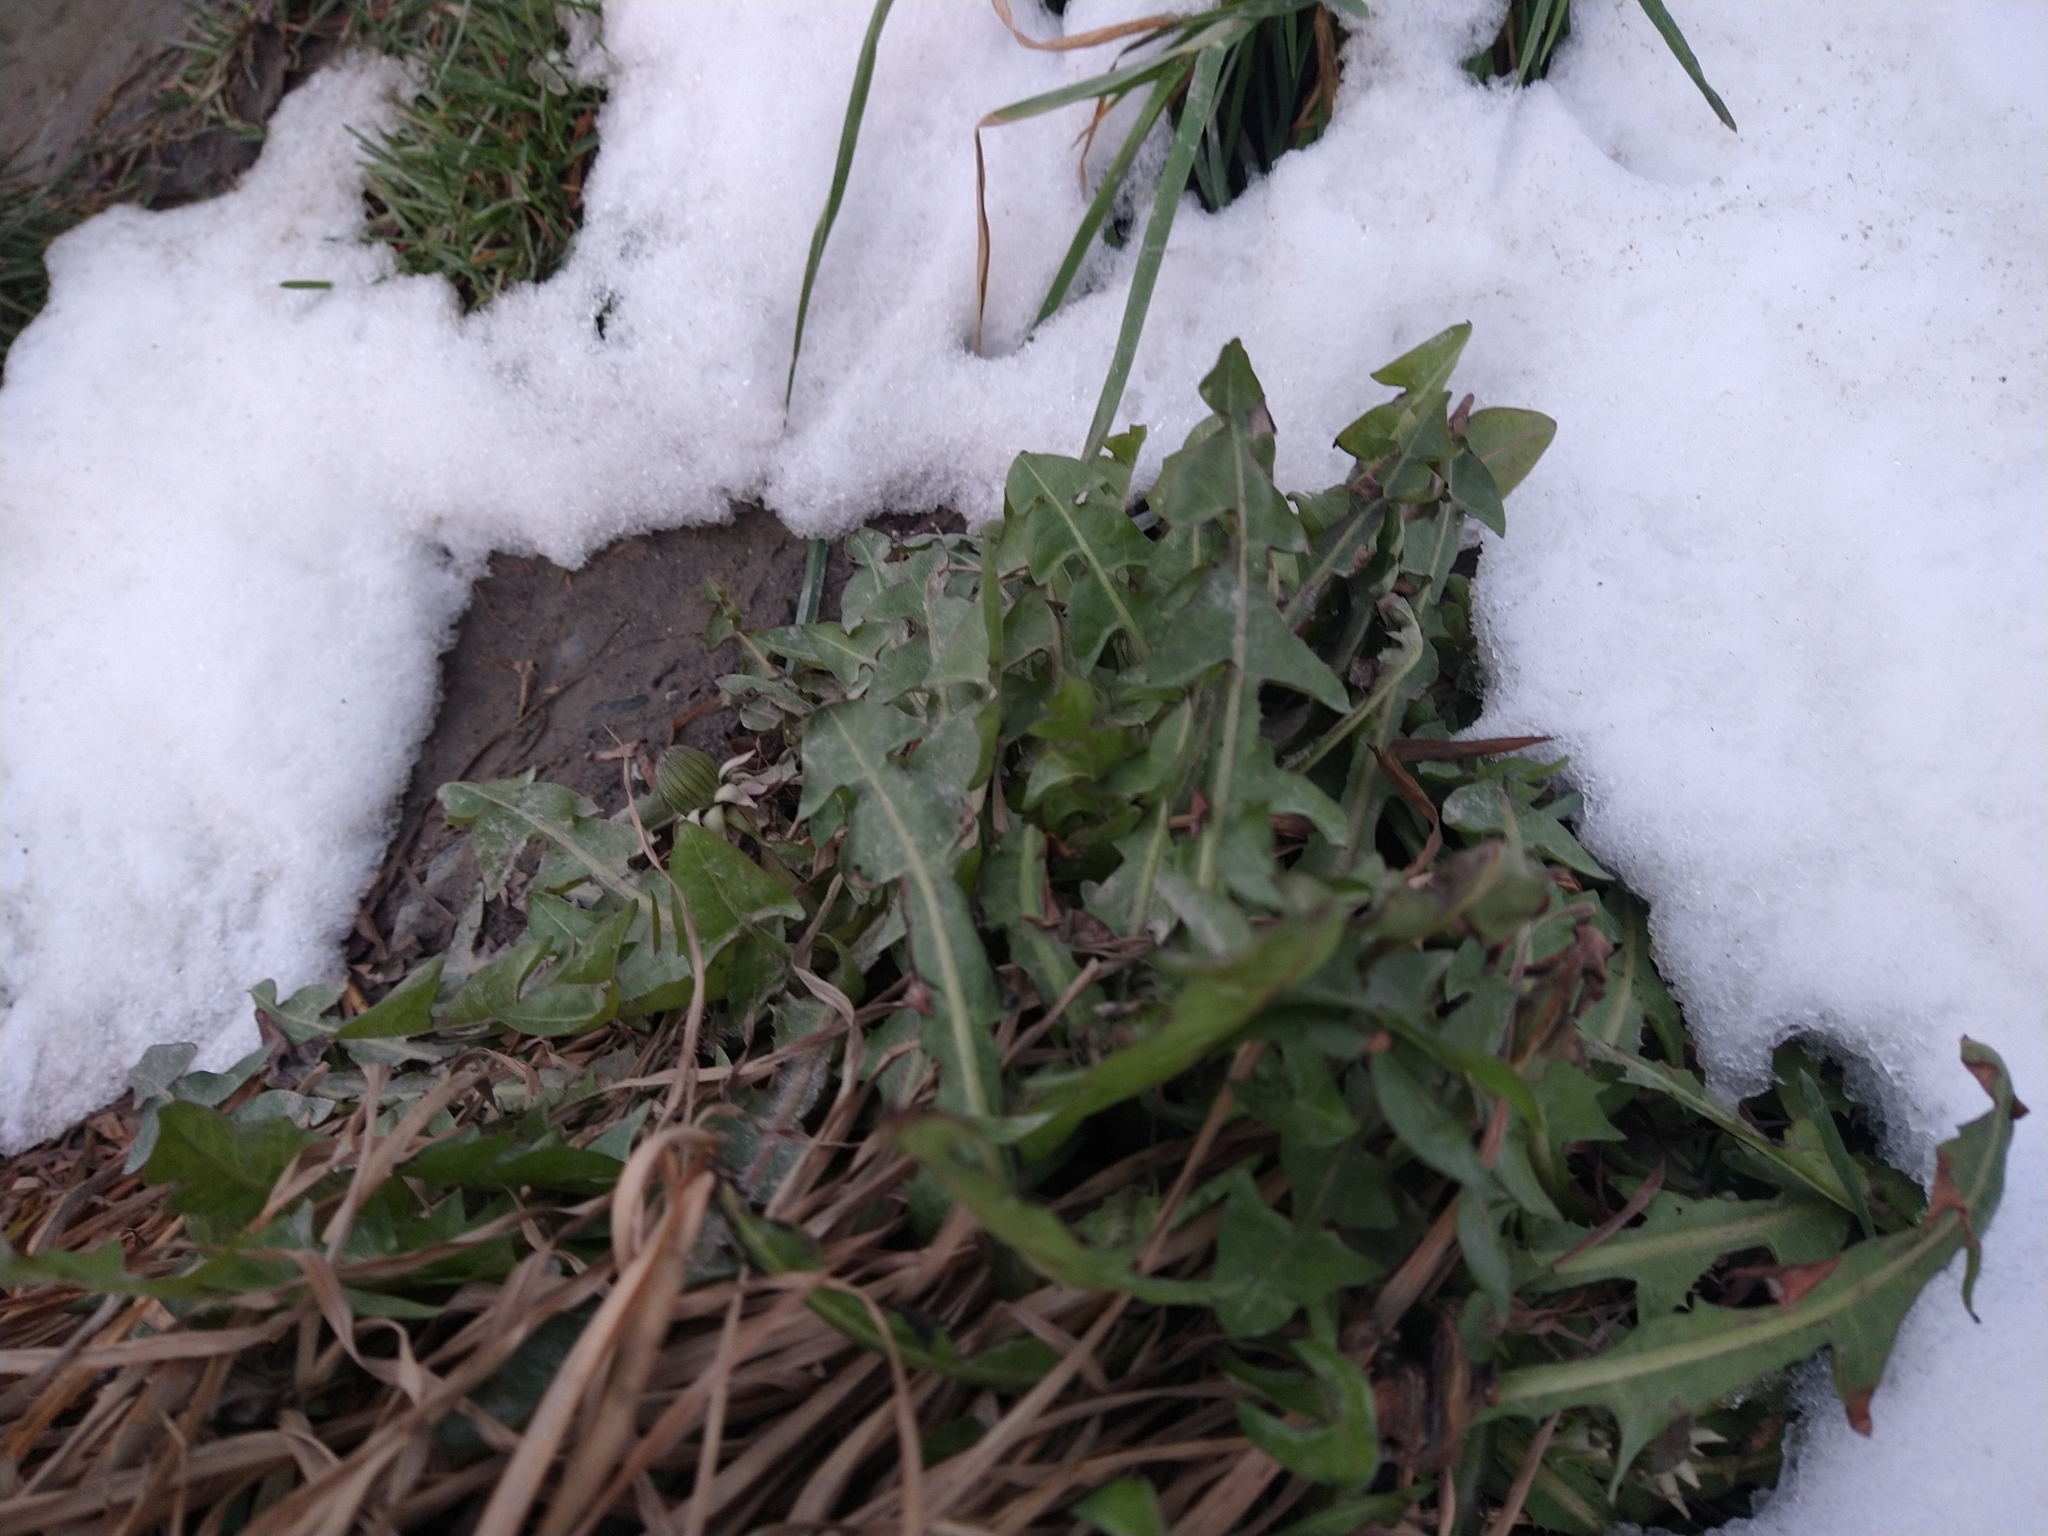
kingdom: Plantae
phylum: Tracheophyta
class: Magnoliopsida
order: Asterales
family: Asteraceae
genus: Taraxacum
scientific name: Taraxacum officinale
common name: Common dandelion
